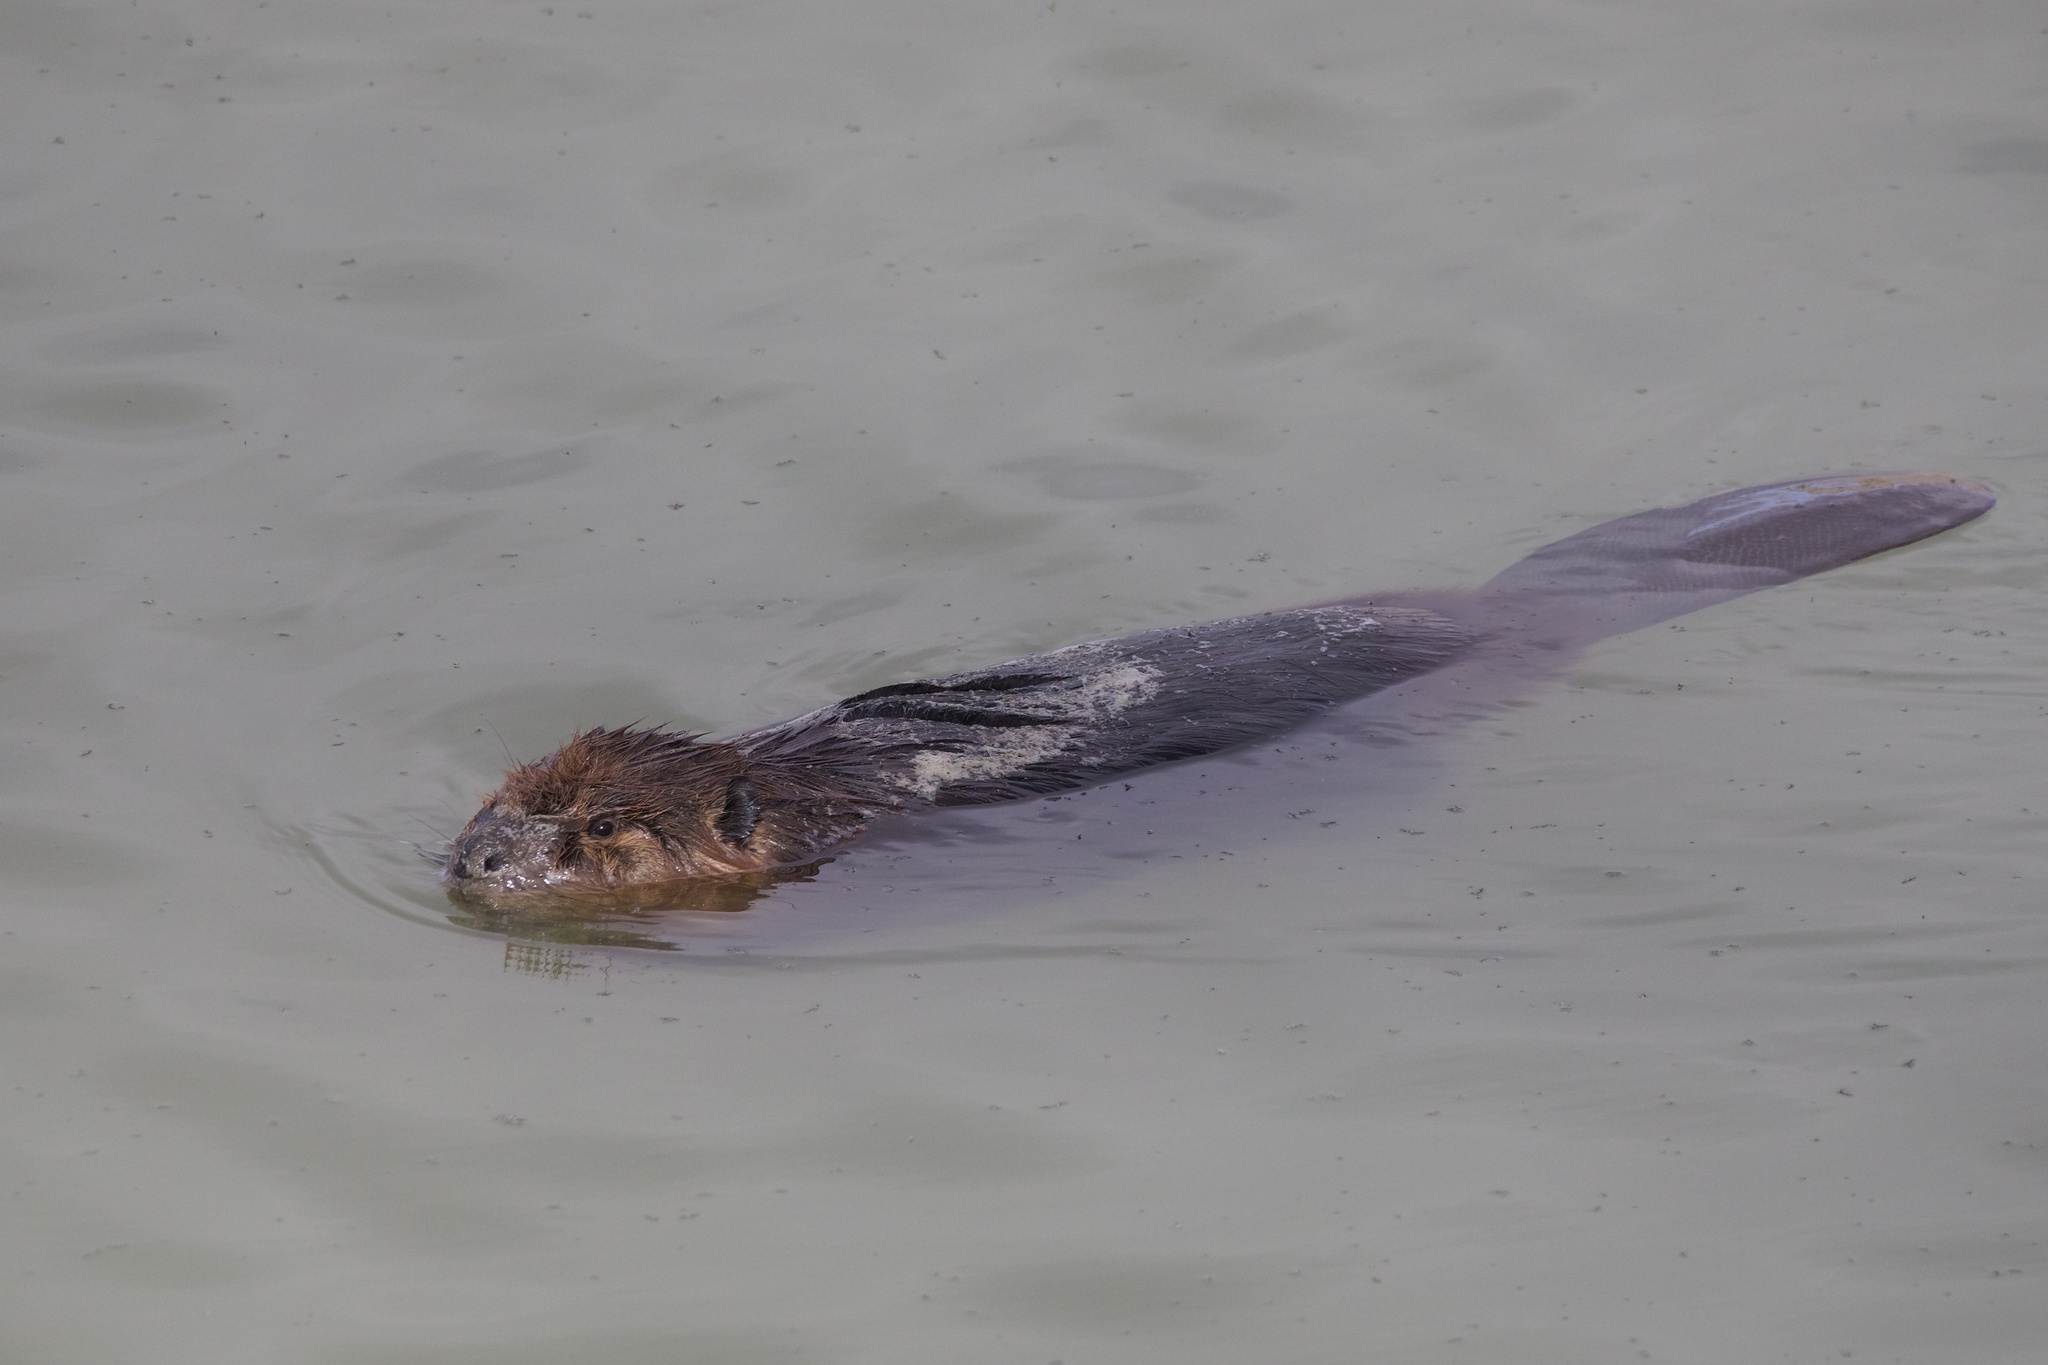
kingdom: Animalia
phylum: Chordata
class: Mammalia
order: Rodentia
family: Castoridae
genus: Castor
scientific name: Castor canadensis
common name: American beaver
